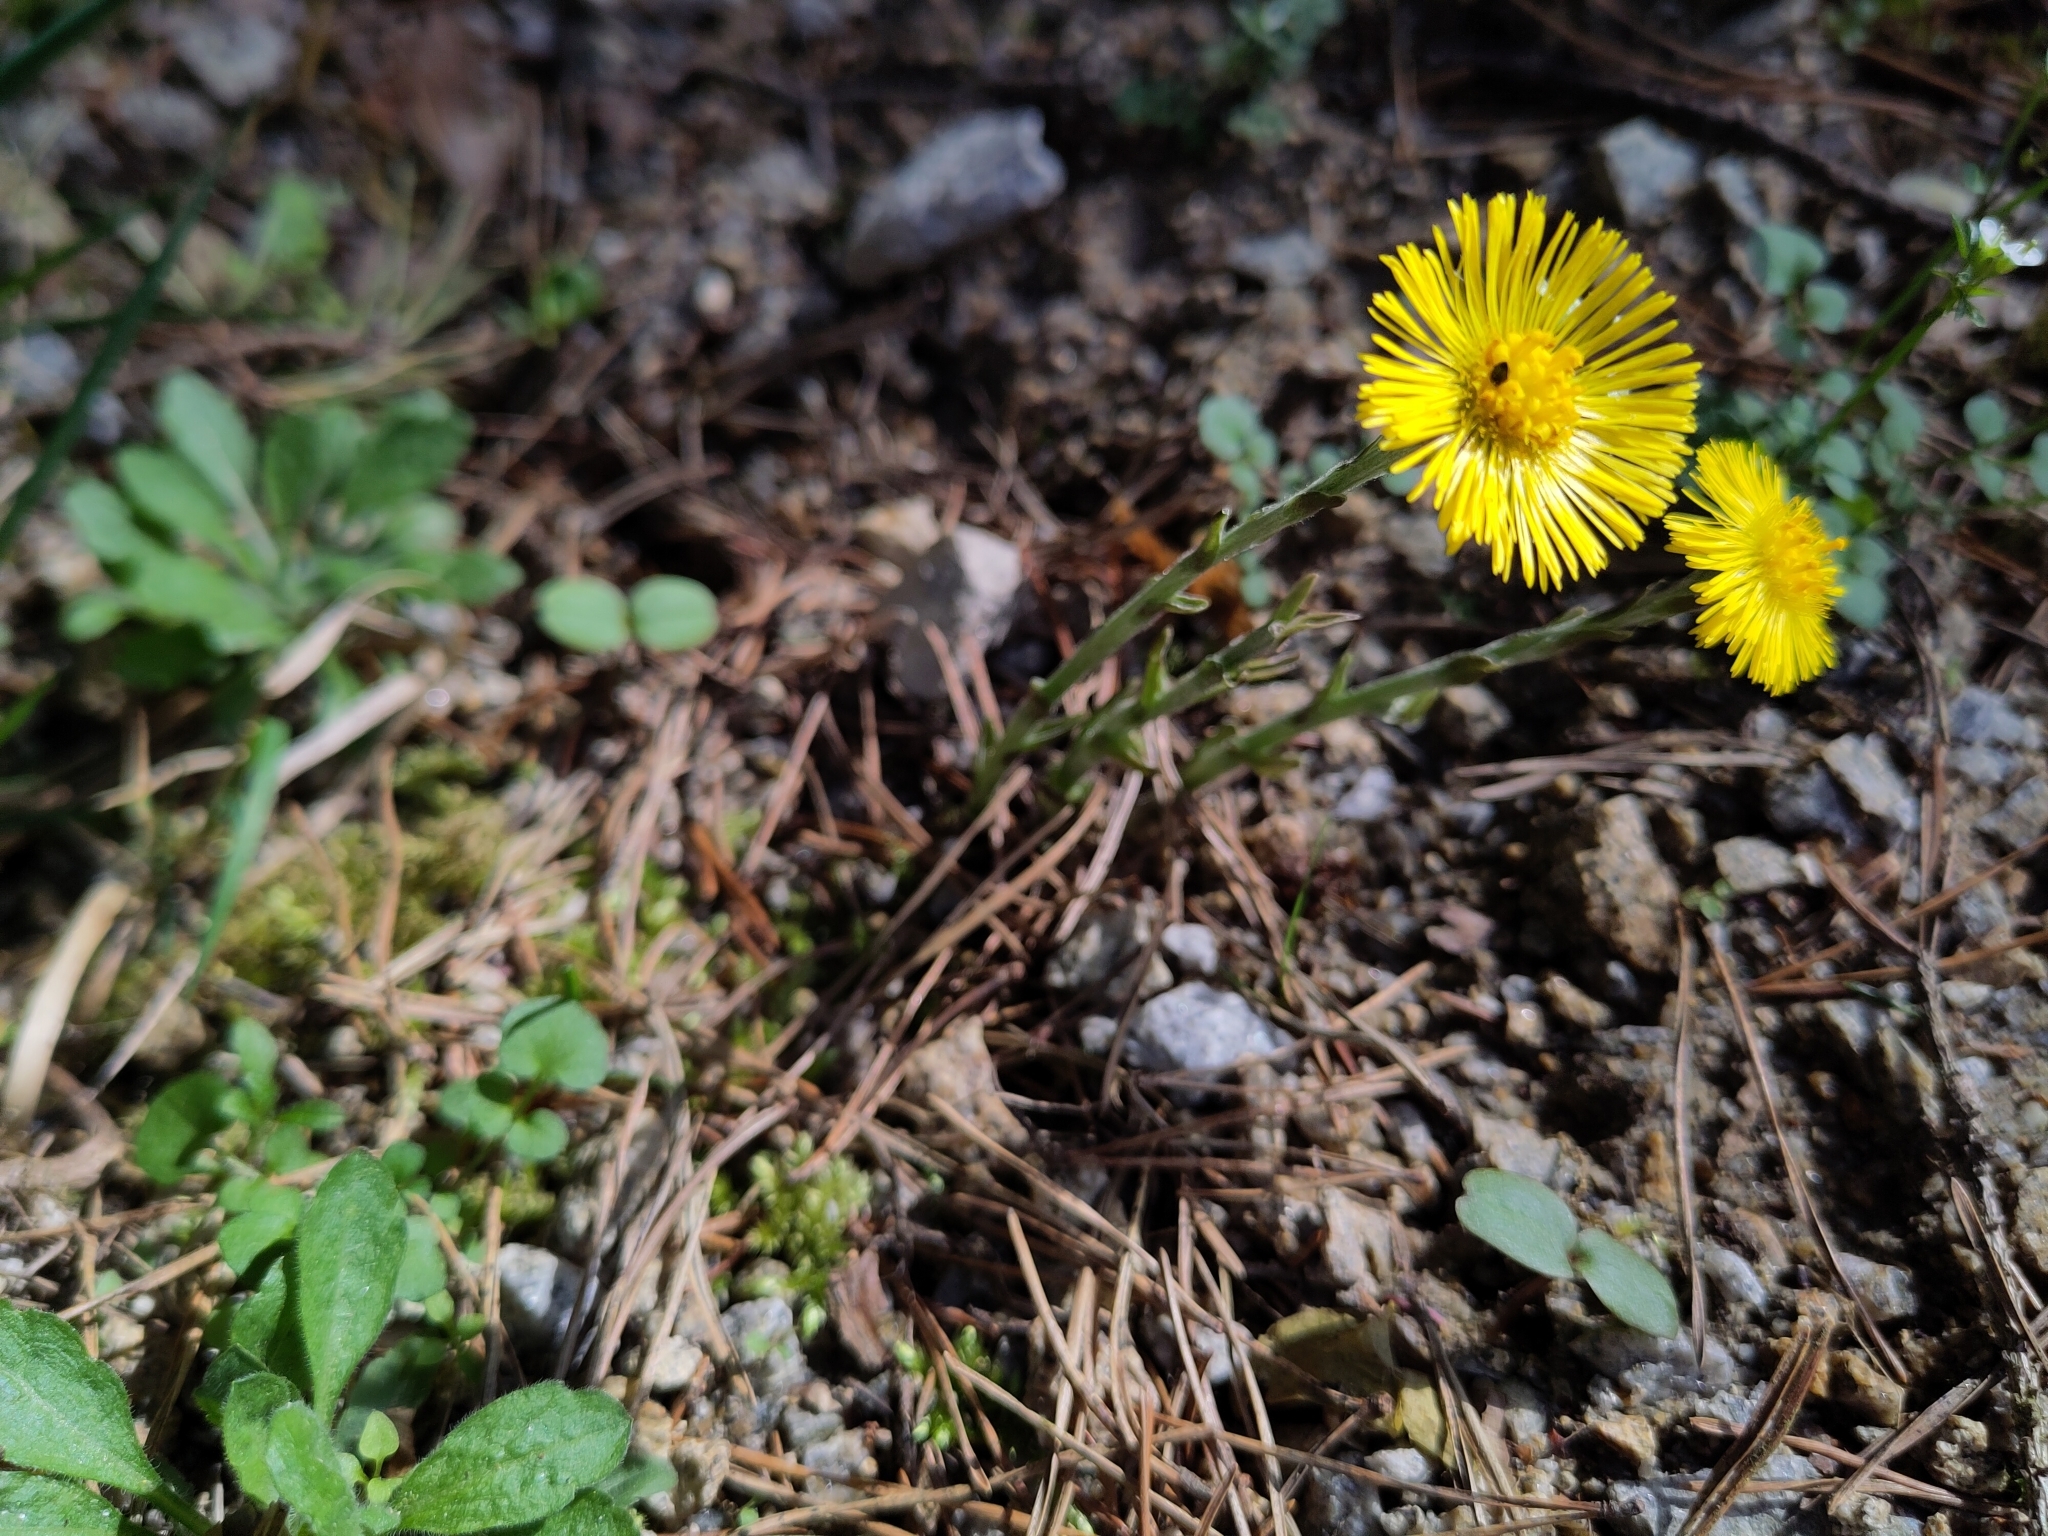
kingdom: Plantae
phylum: Tracheophyta
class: Magnoliopsida
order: Asterales
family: Asteraceae
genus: Tussilago
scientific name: Tussilago farfara
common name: Coltsfoot
